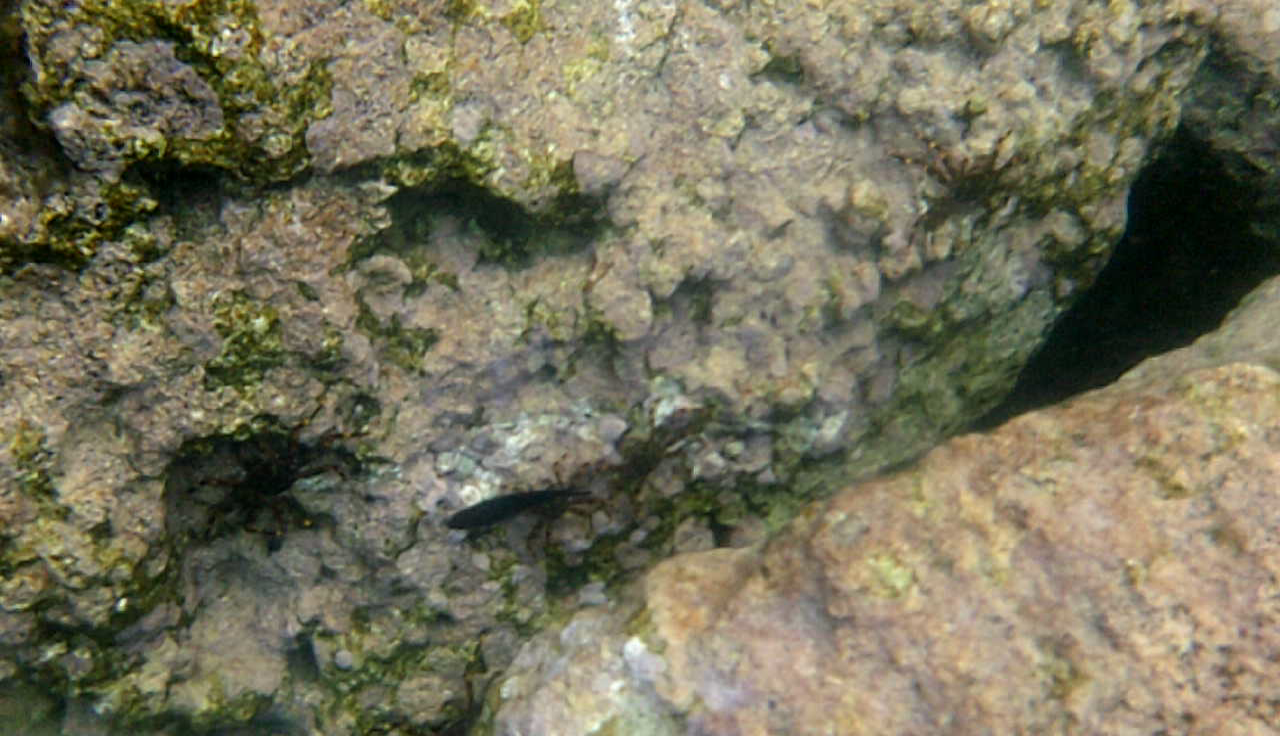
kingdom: Animalia
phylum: Arthropoda
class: Malacostraca
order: Decapoda
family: Percnidae
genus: Percnon
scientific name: Percnon gibbesi
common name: Nimble spray crab
